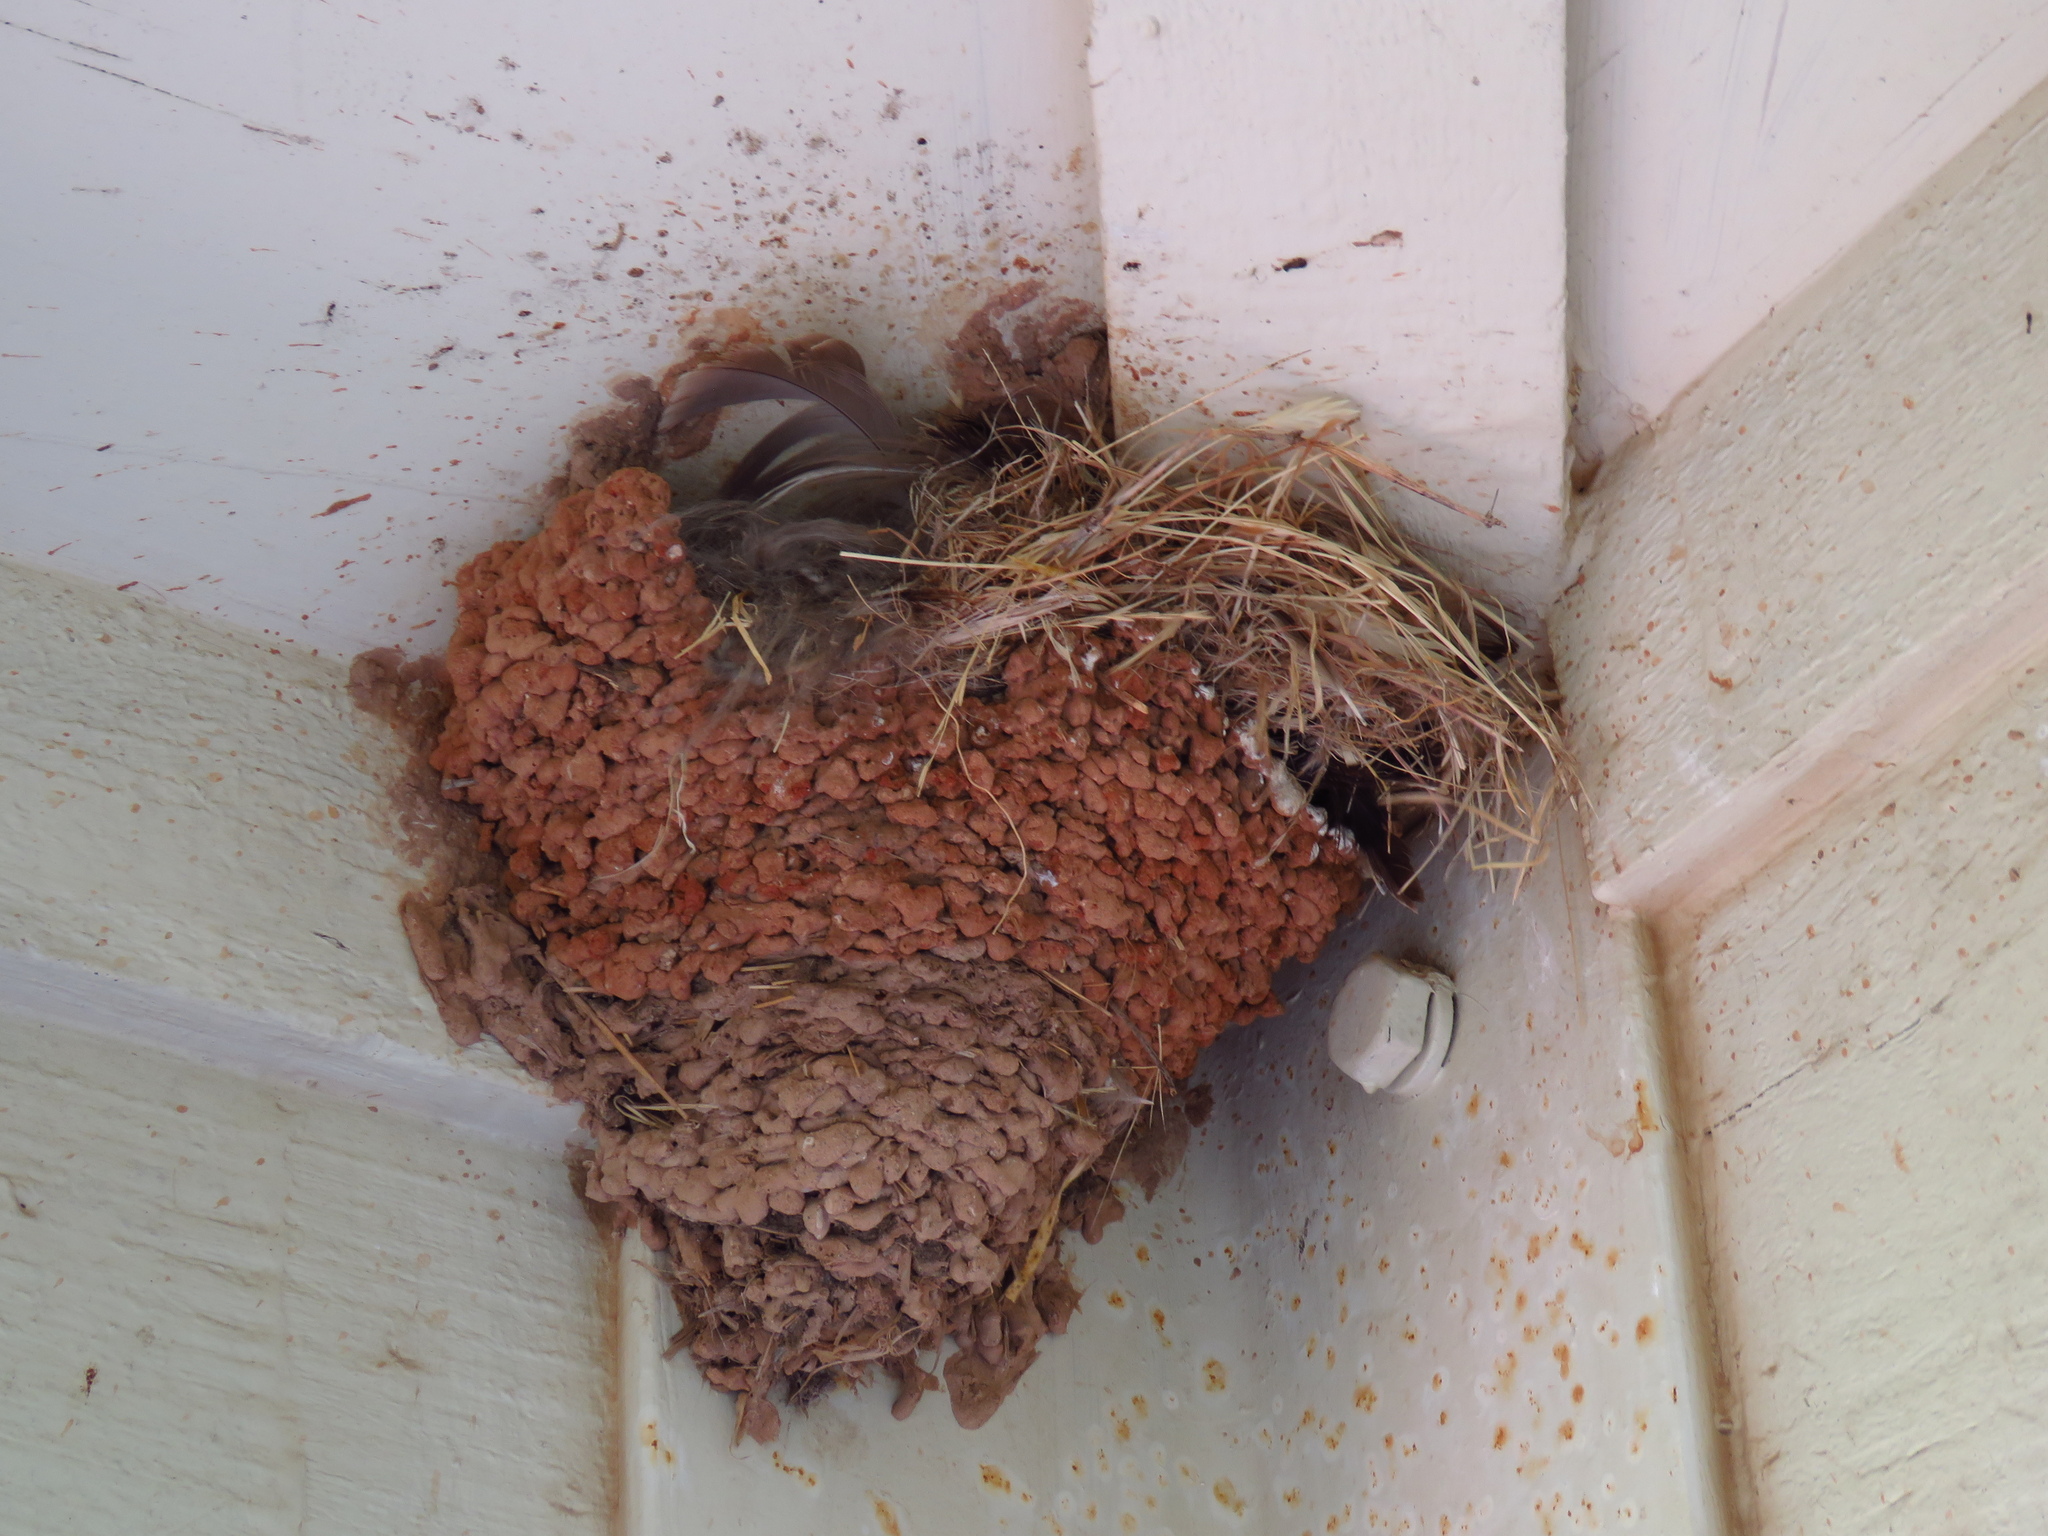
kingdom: Animalia
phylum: Chordata
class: Aves
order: Passeriformes
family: Hirundinidae
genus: Hirundo
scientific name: Hirundo rustica
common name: Barn swallow
